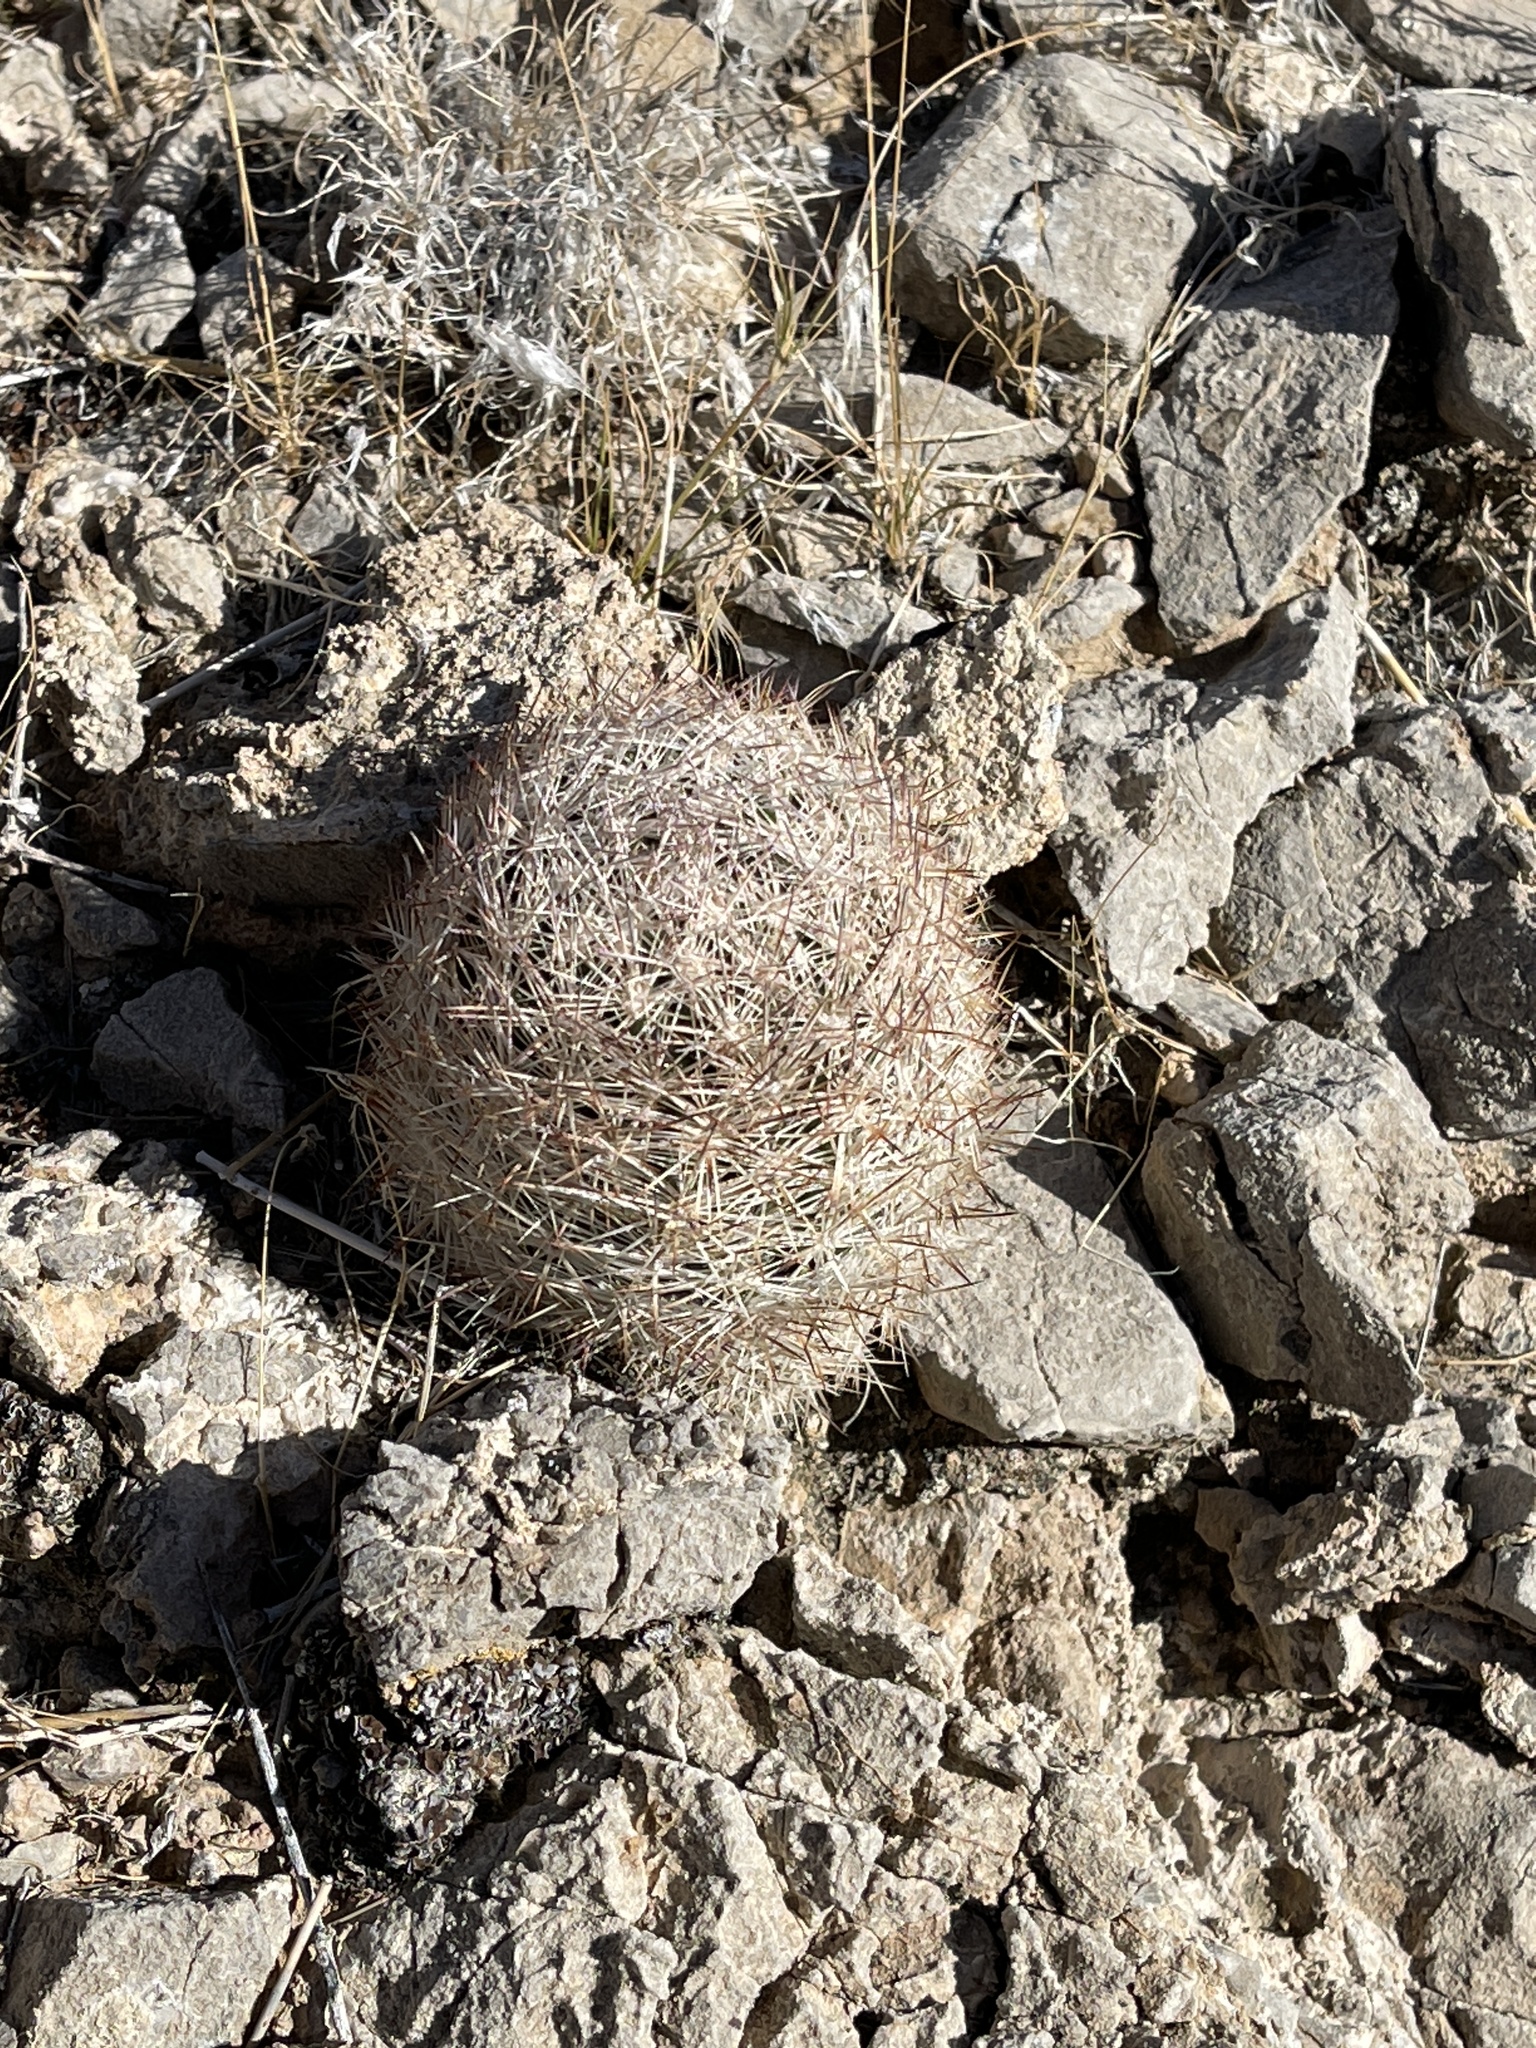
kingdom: Plantae
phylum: Tracheophyta
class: Magnoliopsida
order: Caryophyllales
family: Cactaceae
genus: Pelecyphora
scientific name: Pelecyphora dasyacantha
